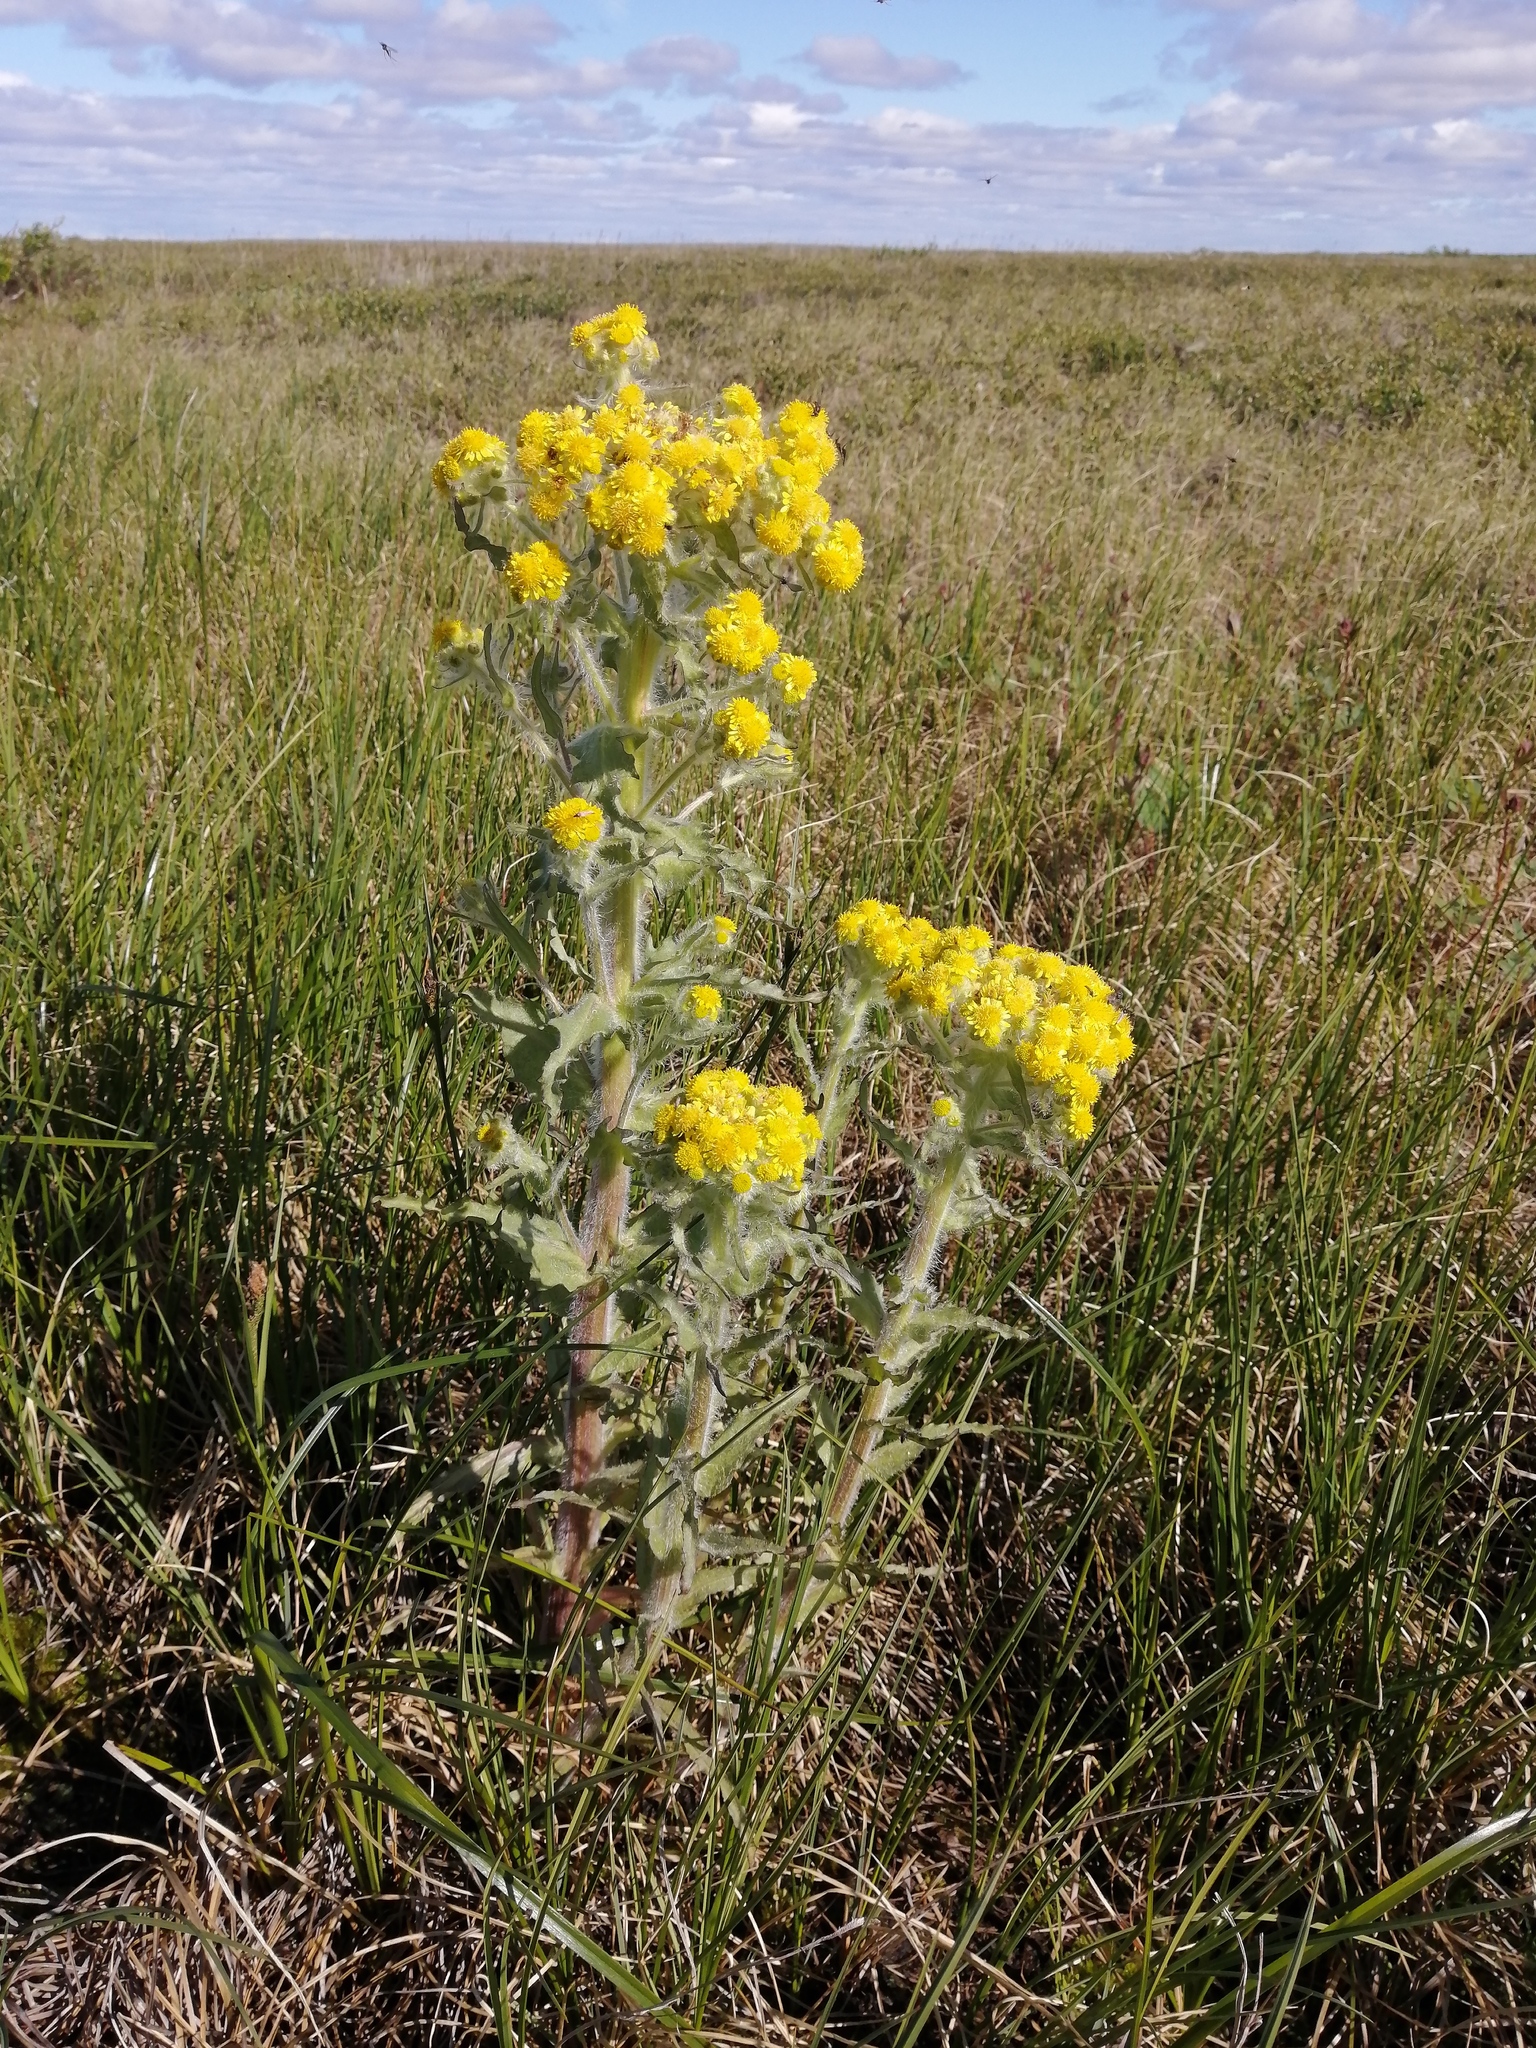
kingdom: Plantae
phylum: Tracheophyta
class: Magnoliopsida
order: Asterales
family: Asteraceae
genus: Tephroseris
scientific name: Tephroseris palustris
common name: Marsh fleawort
